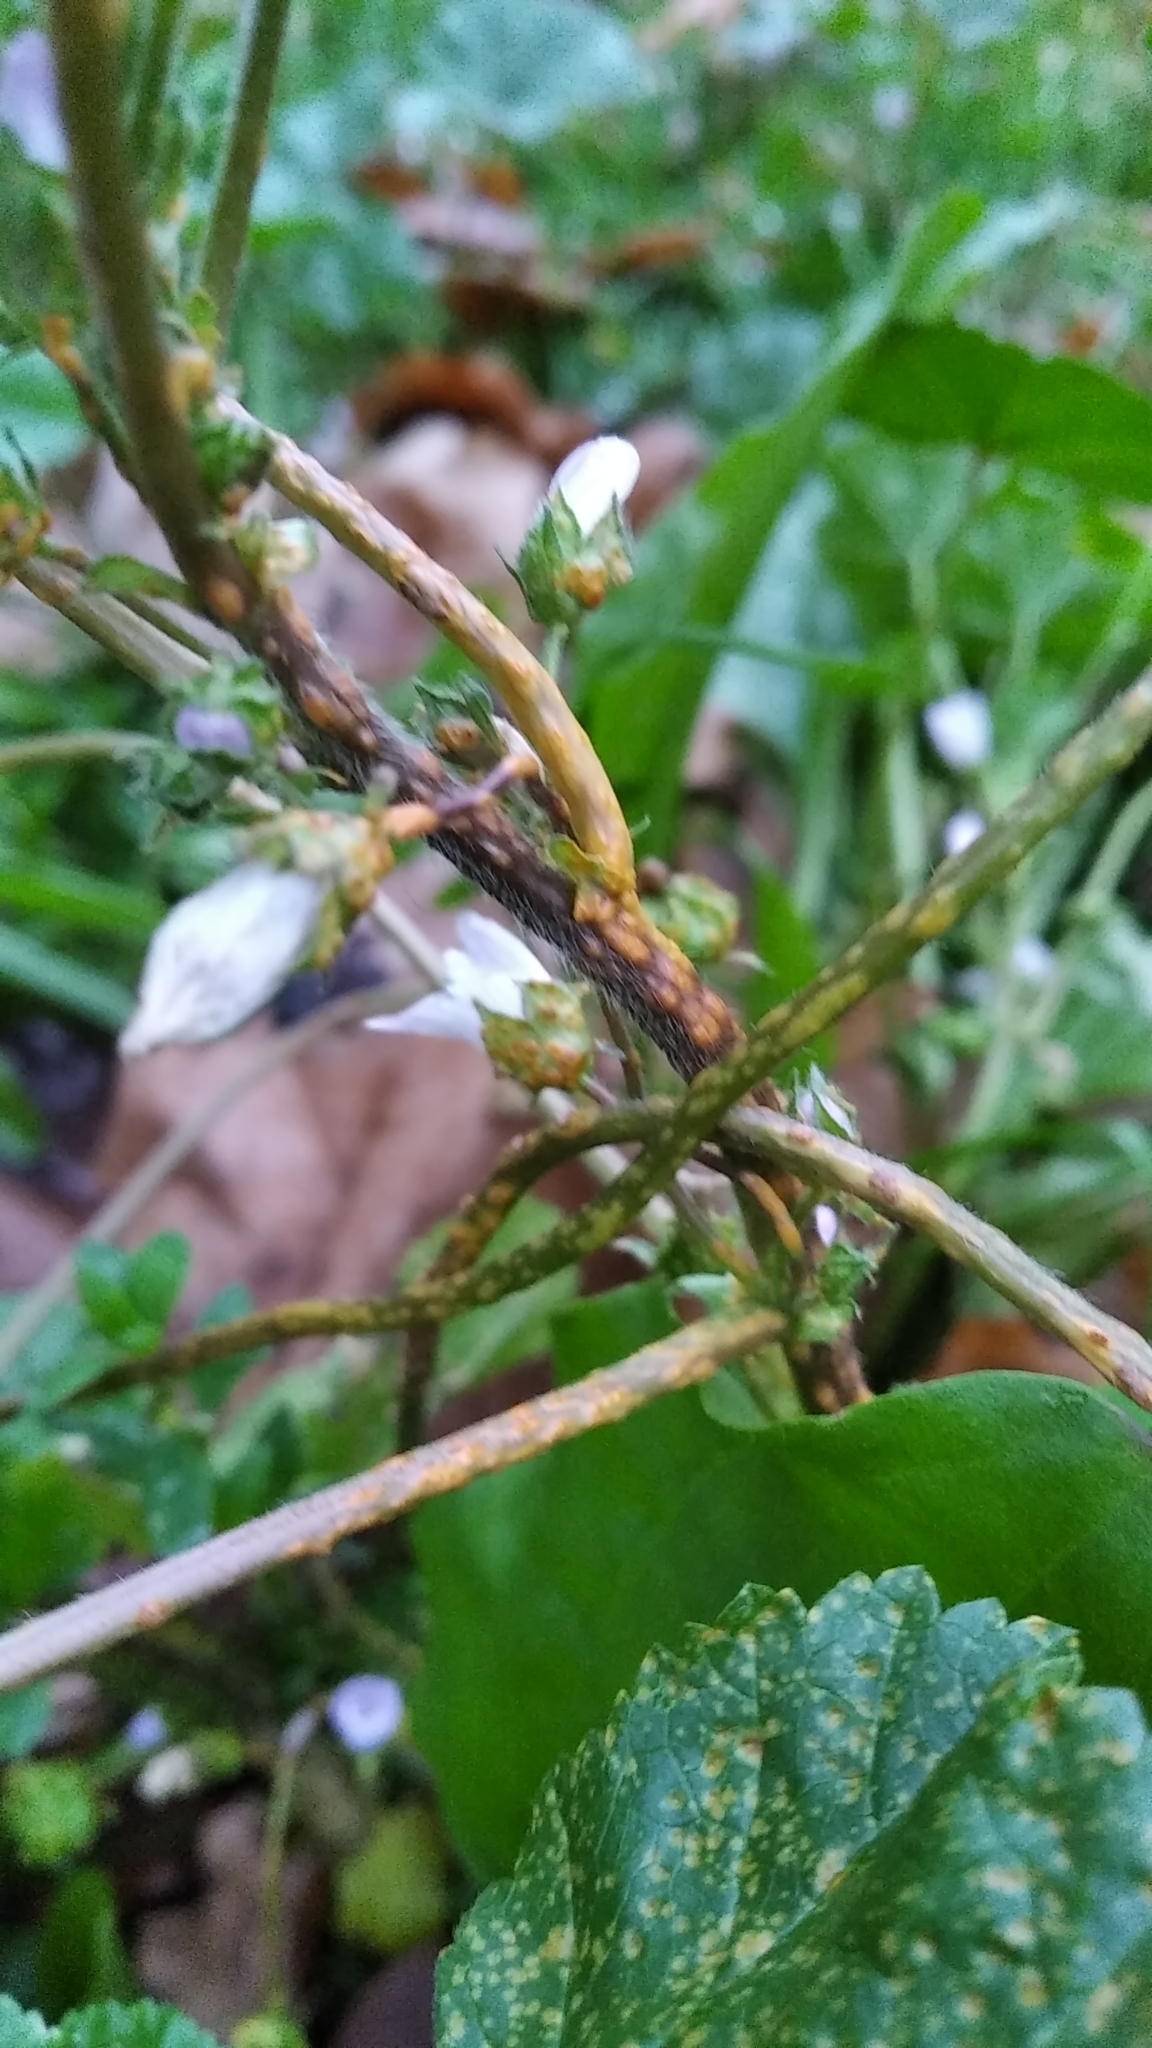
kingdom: Fungi
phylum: Basidiomycota
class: Pucciniomycetes
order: Pucciniales
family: Pucciniaceae
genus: Puccinia
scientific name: Puccinia malvacearum
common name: Hollyhock rust
